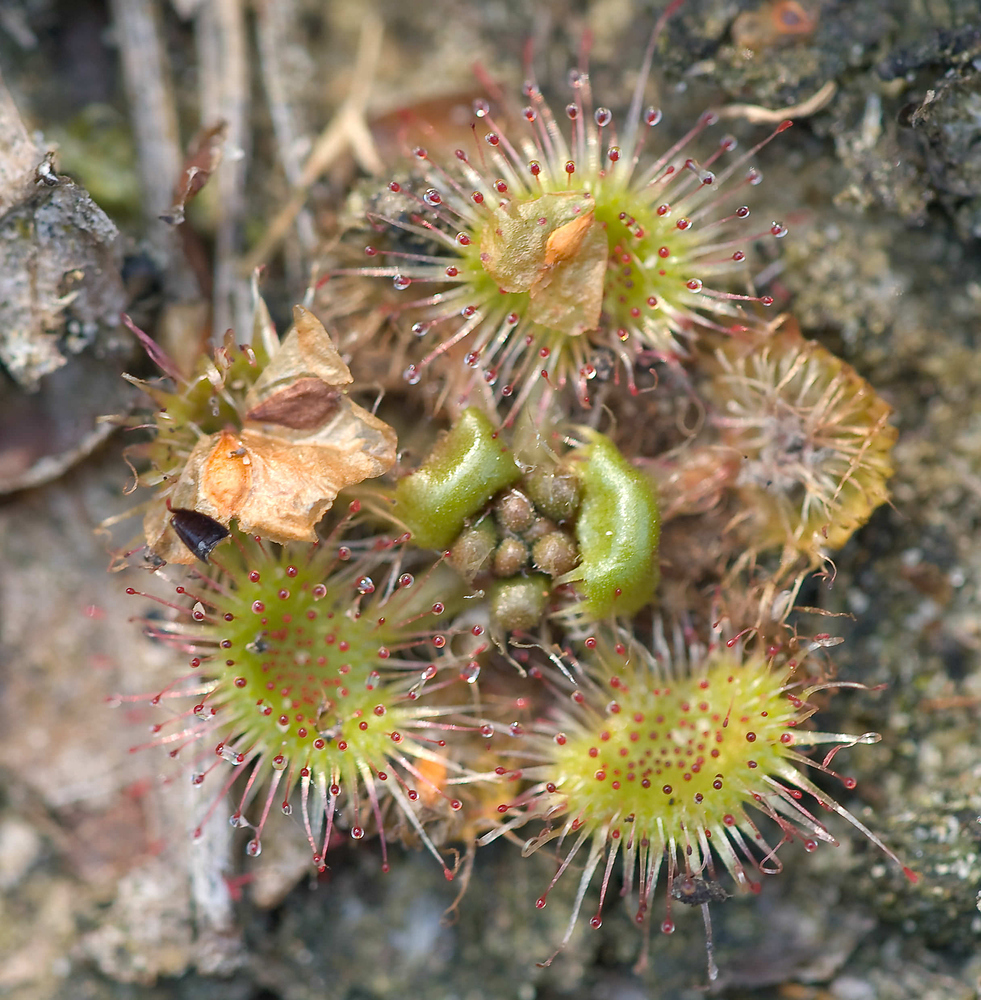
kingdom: Plantae
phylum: Tracheophyta
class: Magnoliopsida
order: Caryophyllales
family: Droseraceae
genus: Drosera
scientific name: Drosera rotundifolia
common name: Round-leaved sundew
